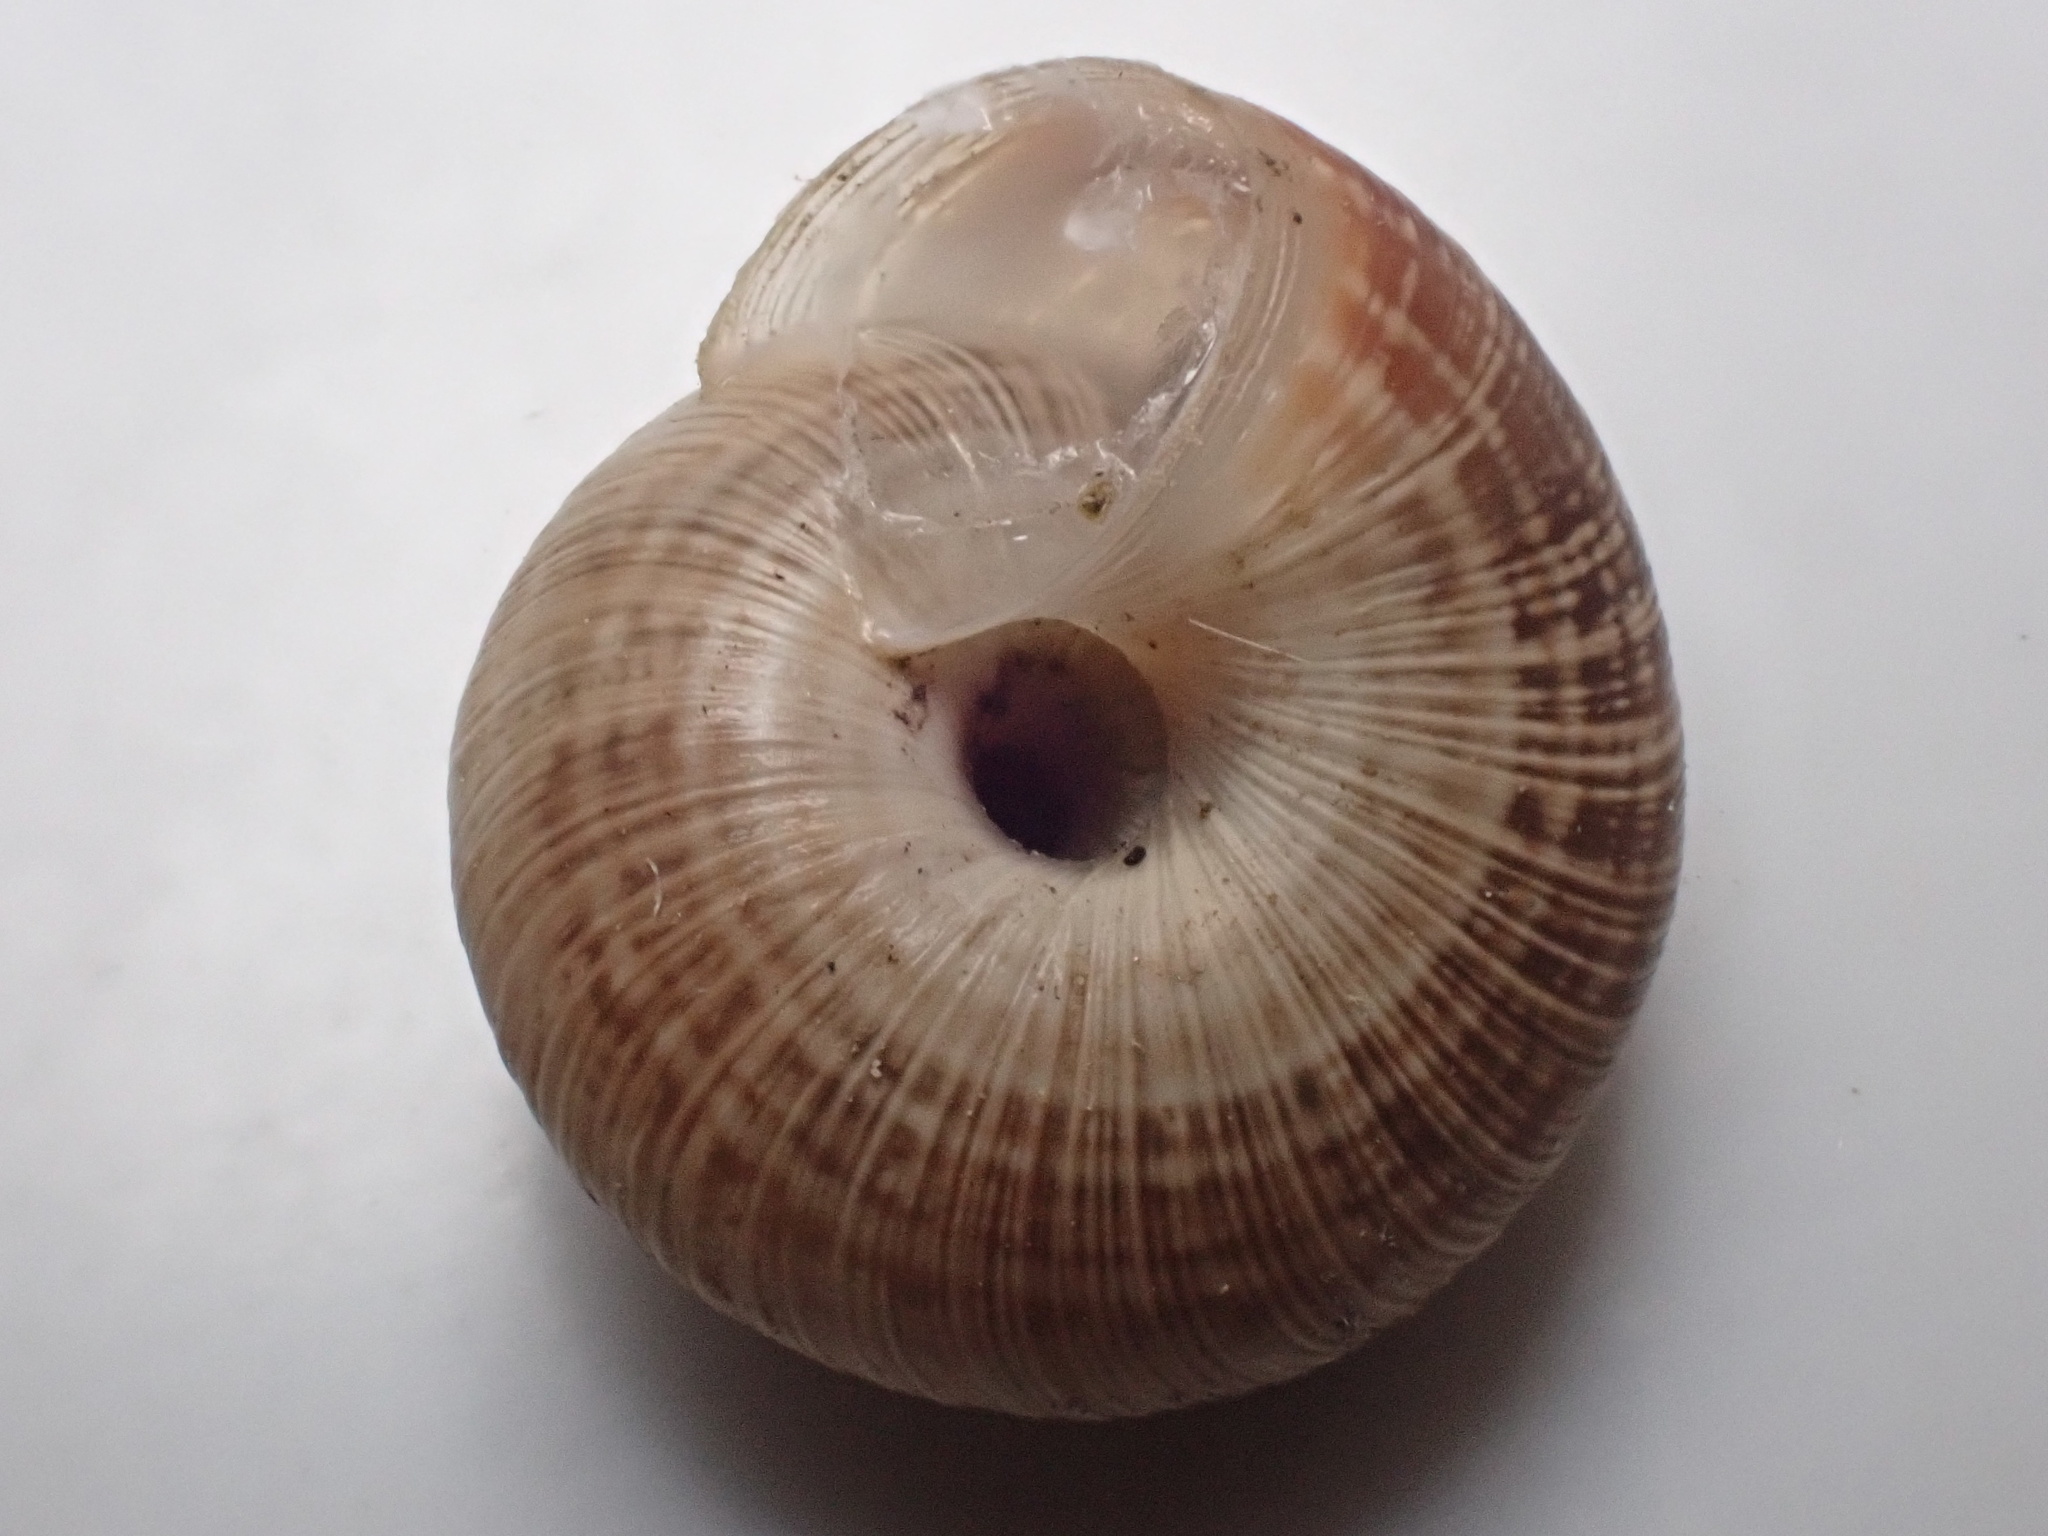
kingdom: Animalia
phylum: Mollusca
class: Gastropoda
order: Stylommatophora
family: Geomitridae
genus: Xeroplexa
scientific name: Xeroplexa intersecta
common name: Wrinkled snail
